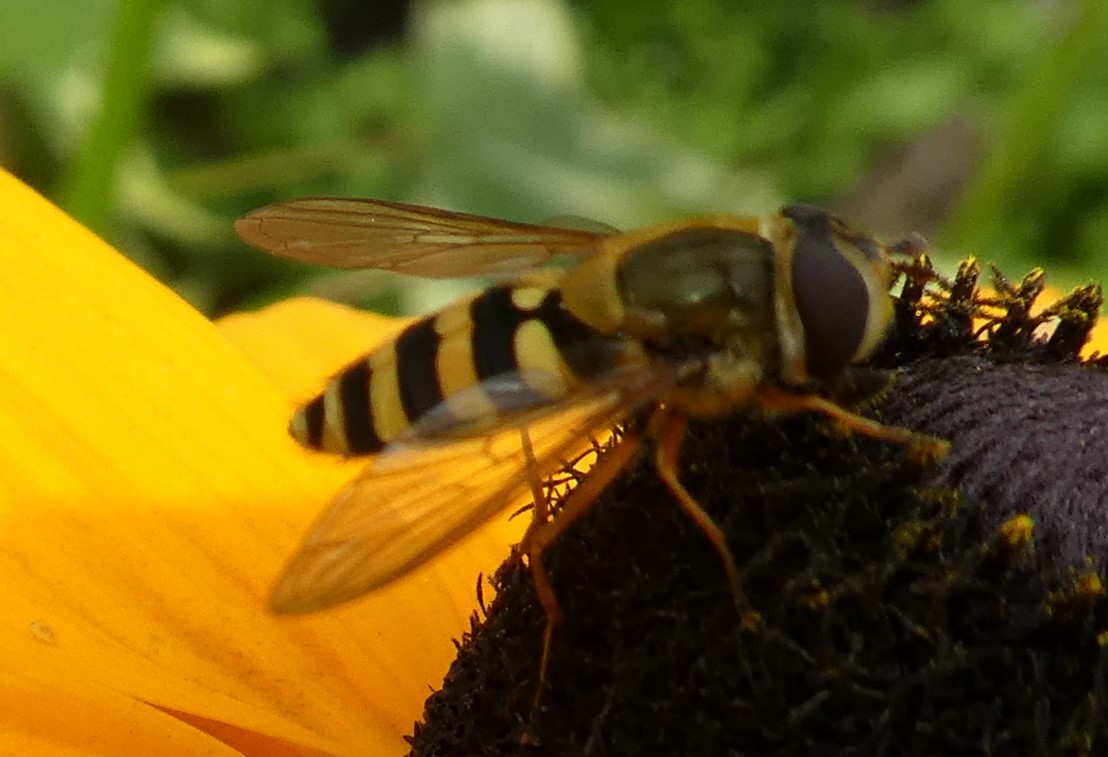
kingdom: Animalia
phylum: Arthropoda
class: Insecta
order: Diptera
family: Syrphidae
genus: Syrphus
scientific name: Syrphus ribesii
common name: Common flower fly
